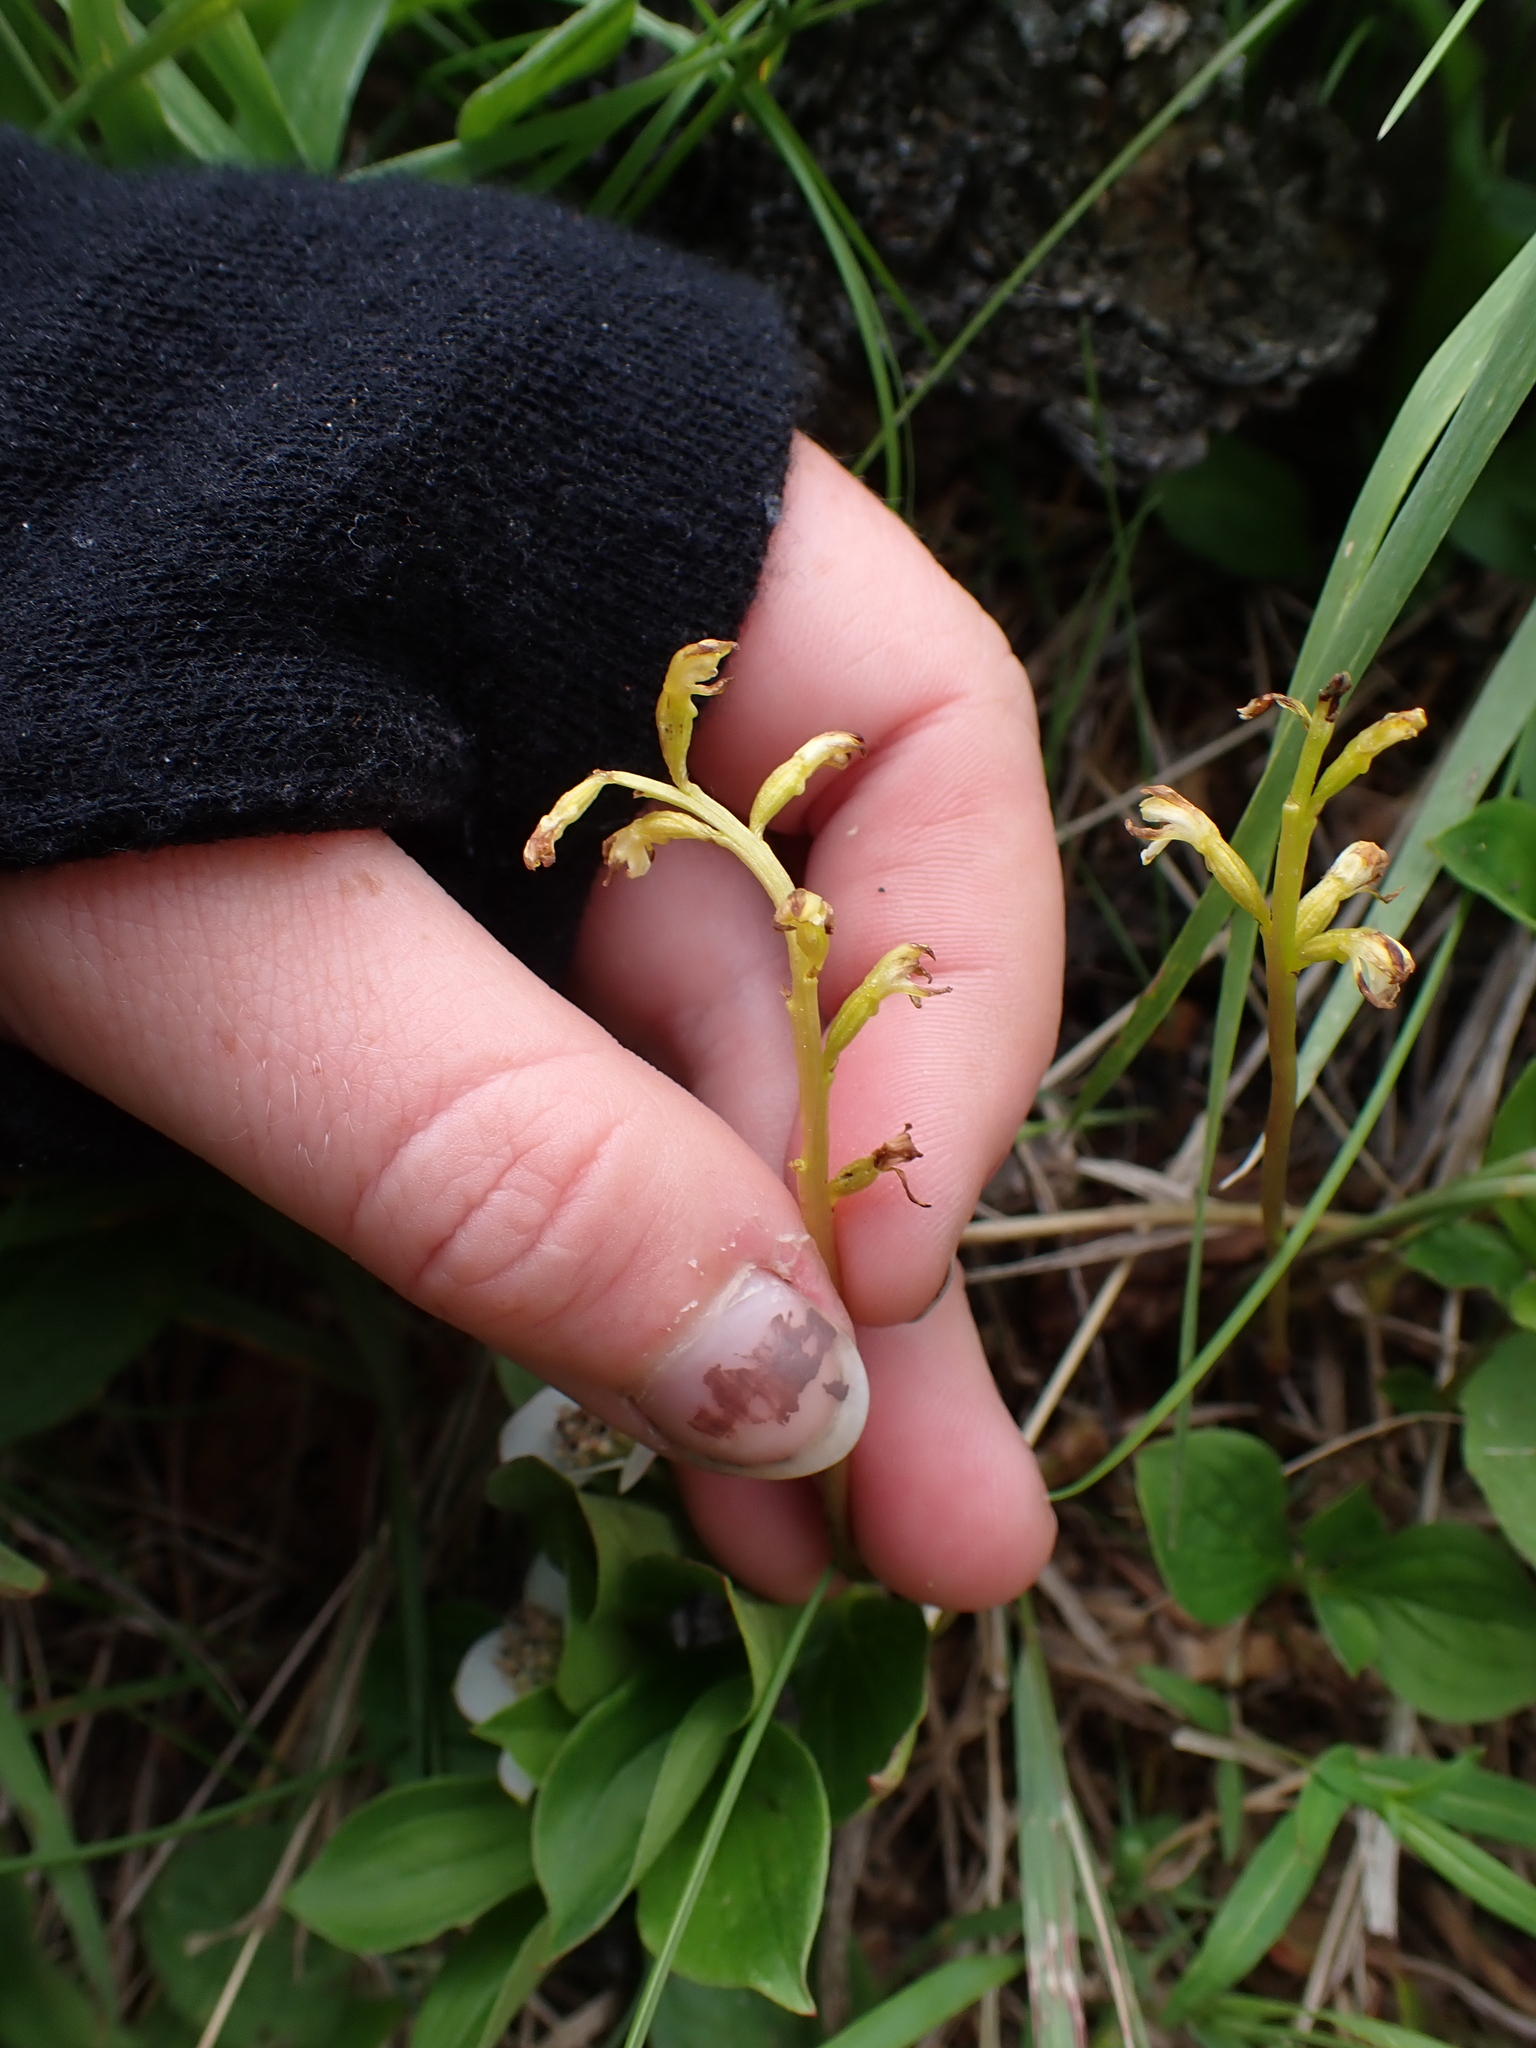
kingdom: Plantae
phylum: Tracheophyta
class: Liliopsida
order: Asparagales
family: Orchidaceae
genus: Corallorhiza
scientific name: Corallorhiza trifida
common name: Yellow coralroot
